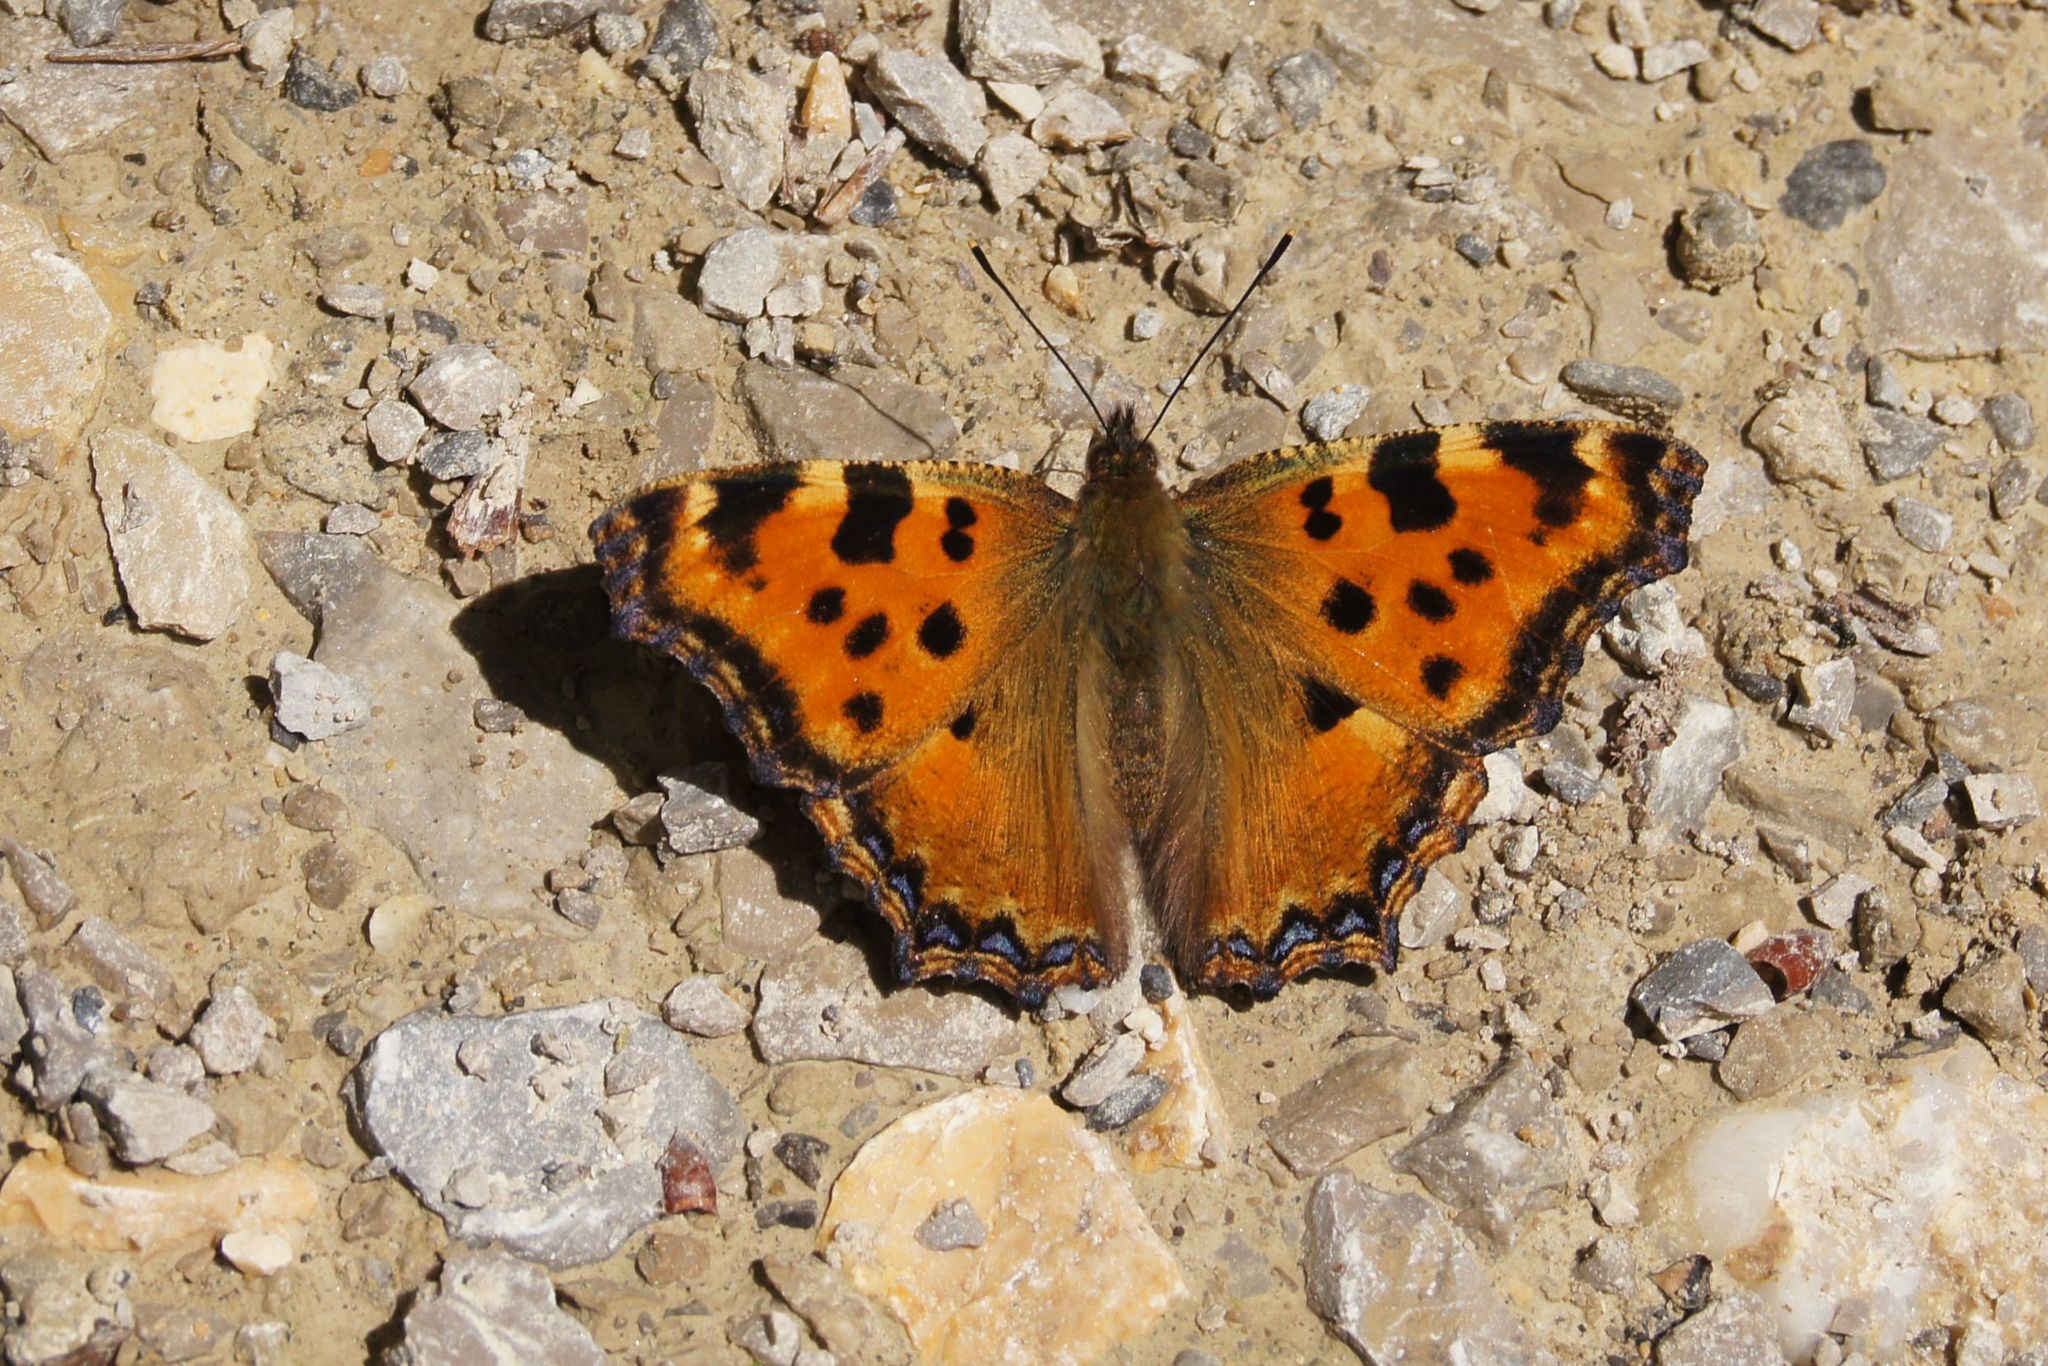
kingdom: Animalia
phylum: Arthropoda
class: Insecta
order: Lepidoptera
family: Nymphalidae
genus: Nymphalis
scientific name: Nymphalis polychloros
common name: Large tortoiseshell
